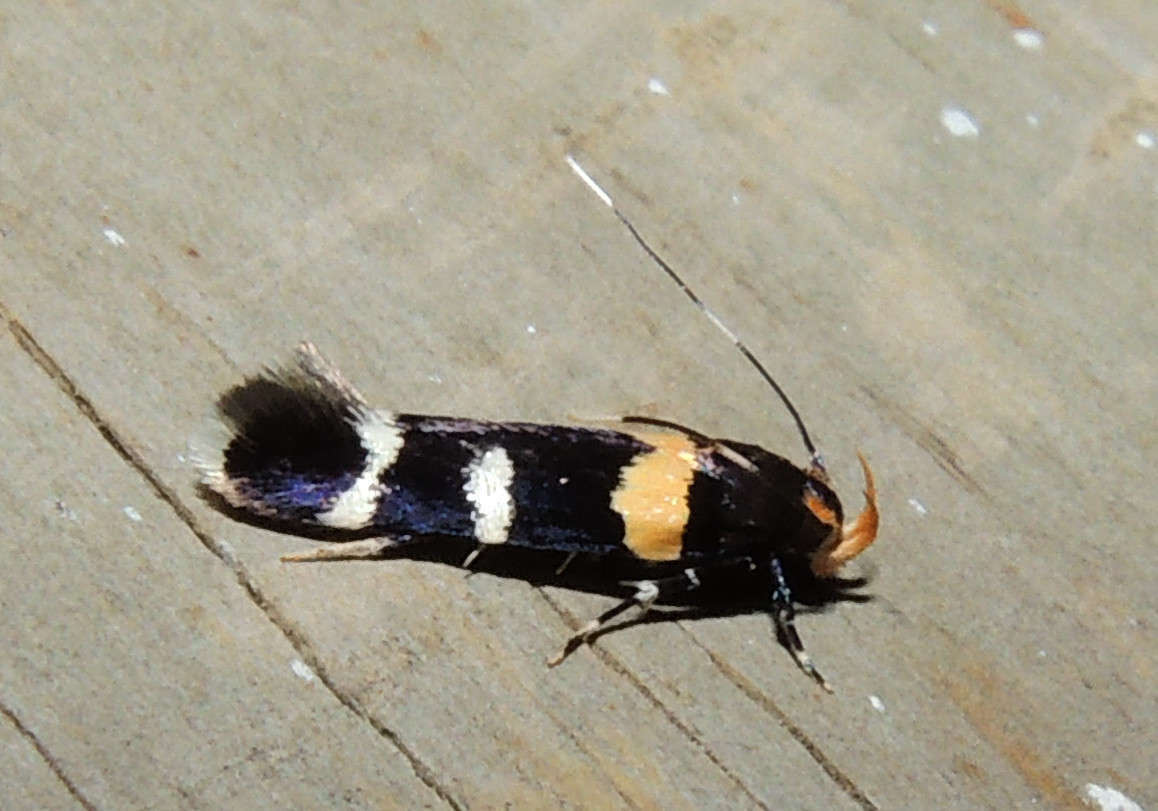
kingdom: Animalia
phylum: Arthropoda
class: Insecta
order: Lepidoptera
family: Cosmopterigidae
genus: Limnaecia
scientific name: Limnaecia cirrhozona
